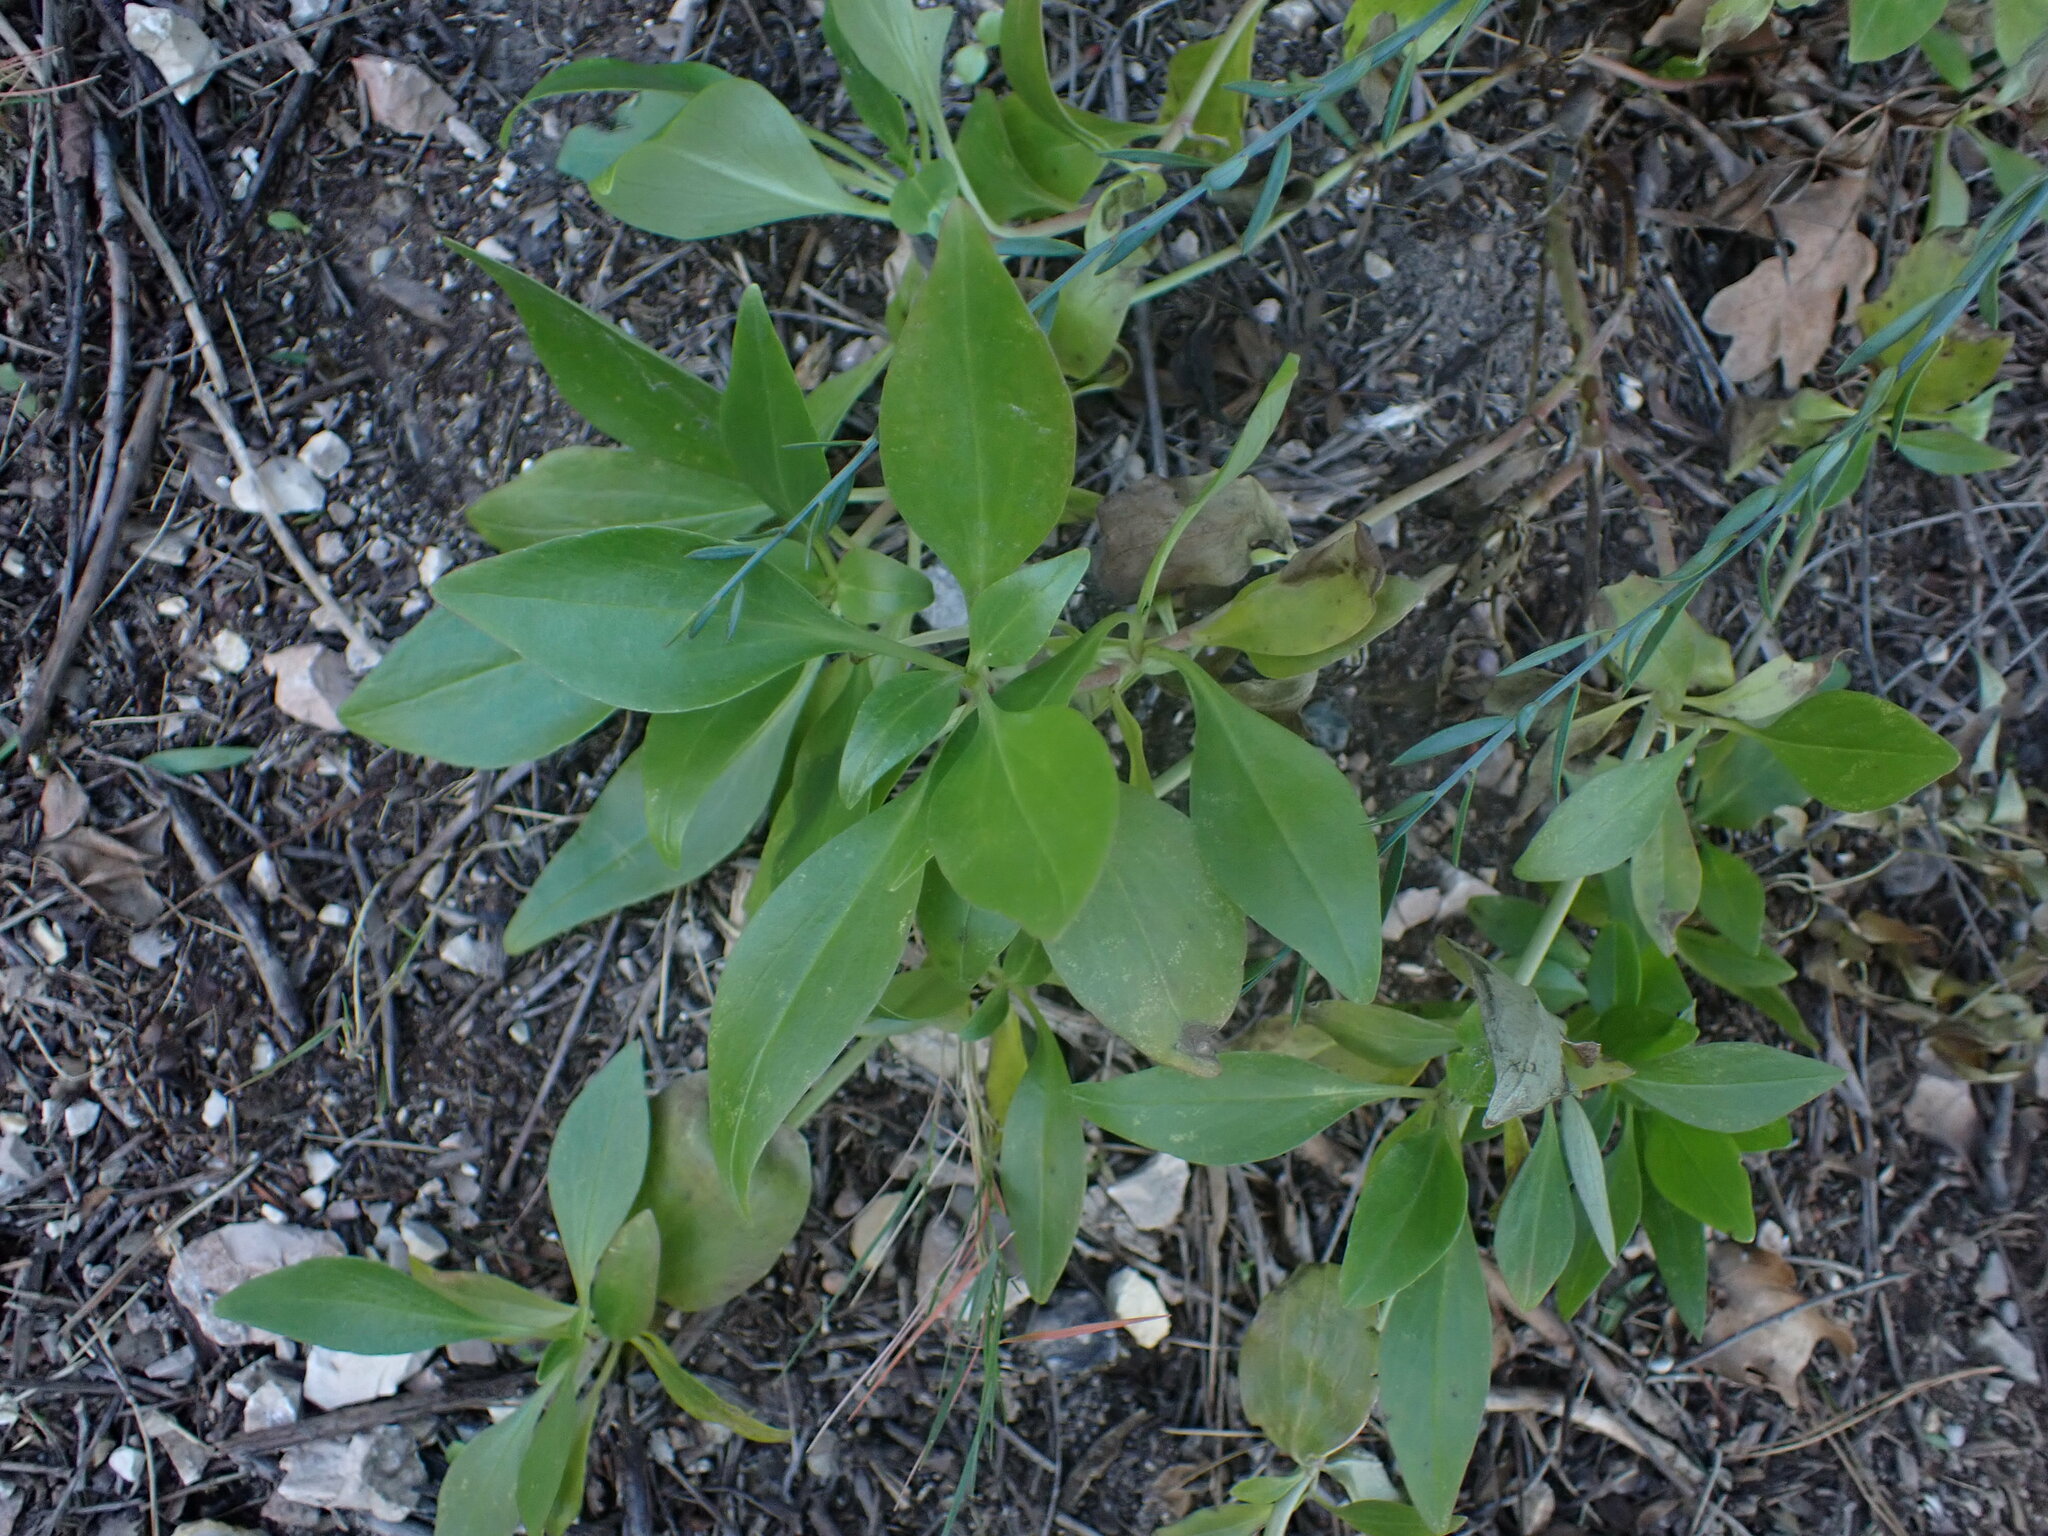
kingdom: Plantae
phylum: Tracheophyta
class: Magnoliopsida
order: Dipsacales
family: Caprifoliaceae
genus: Centranthus
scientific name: Centranthus ruber
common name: Red valerian
